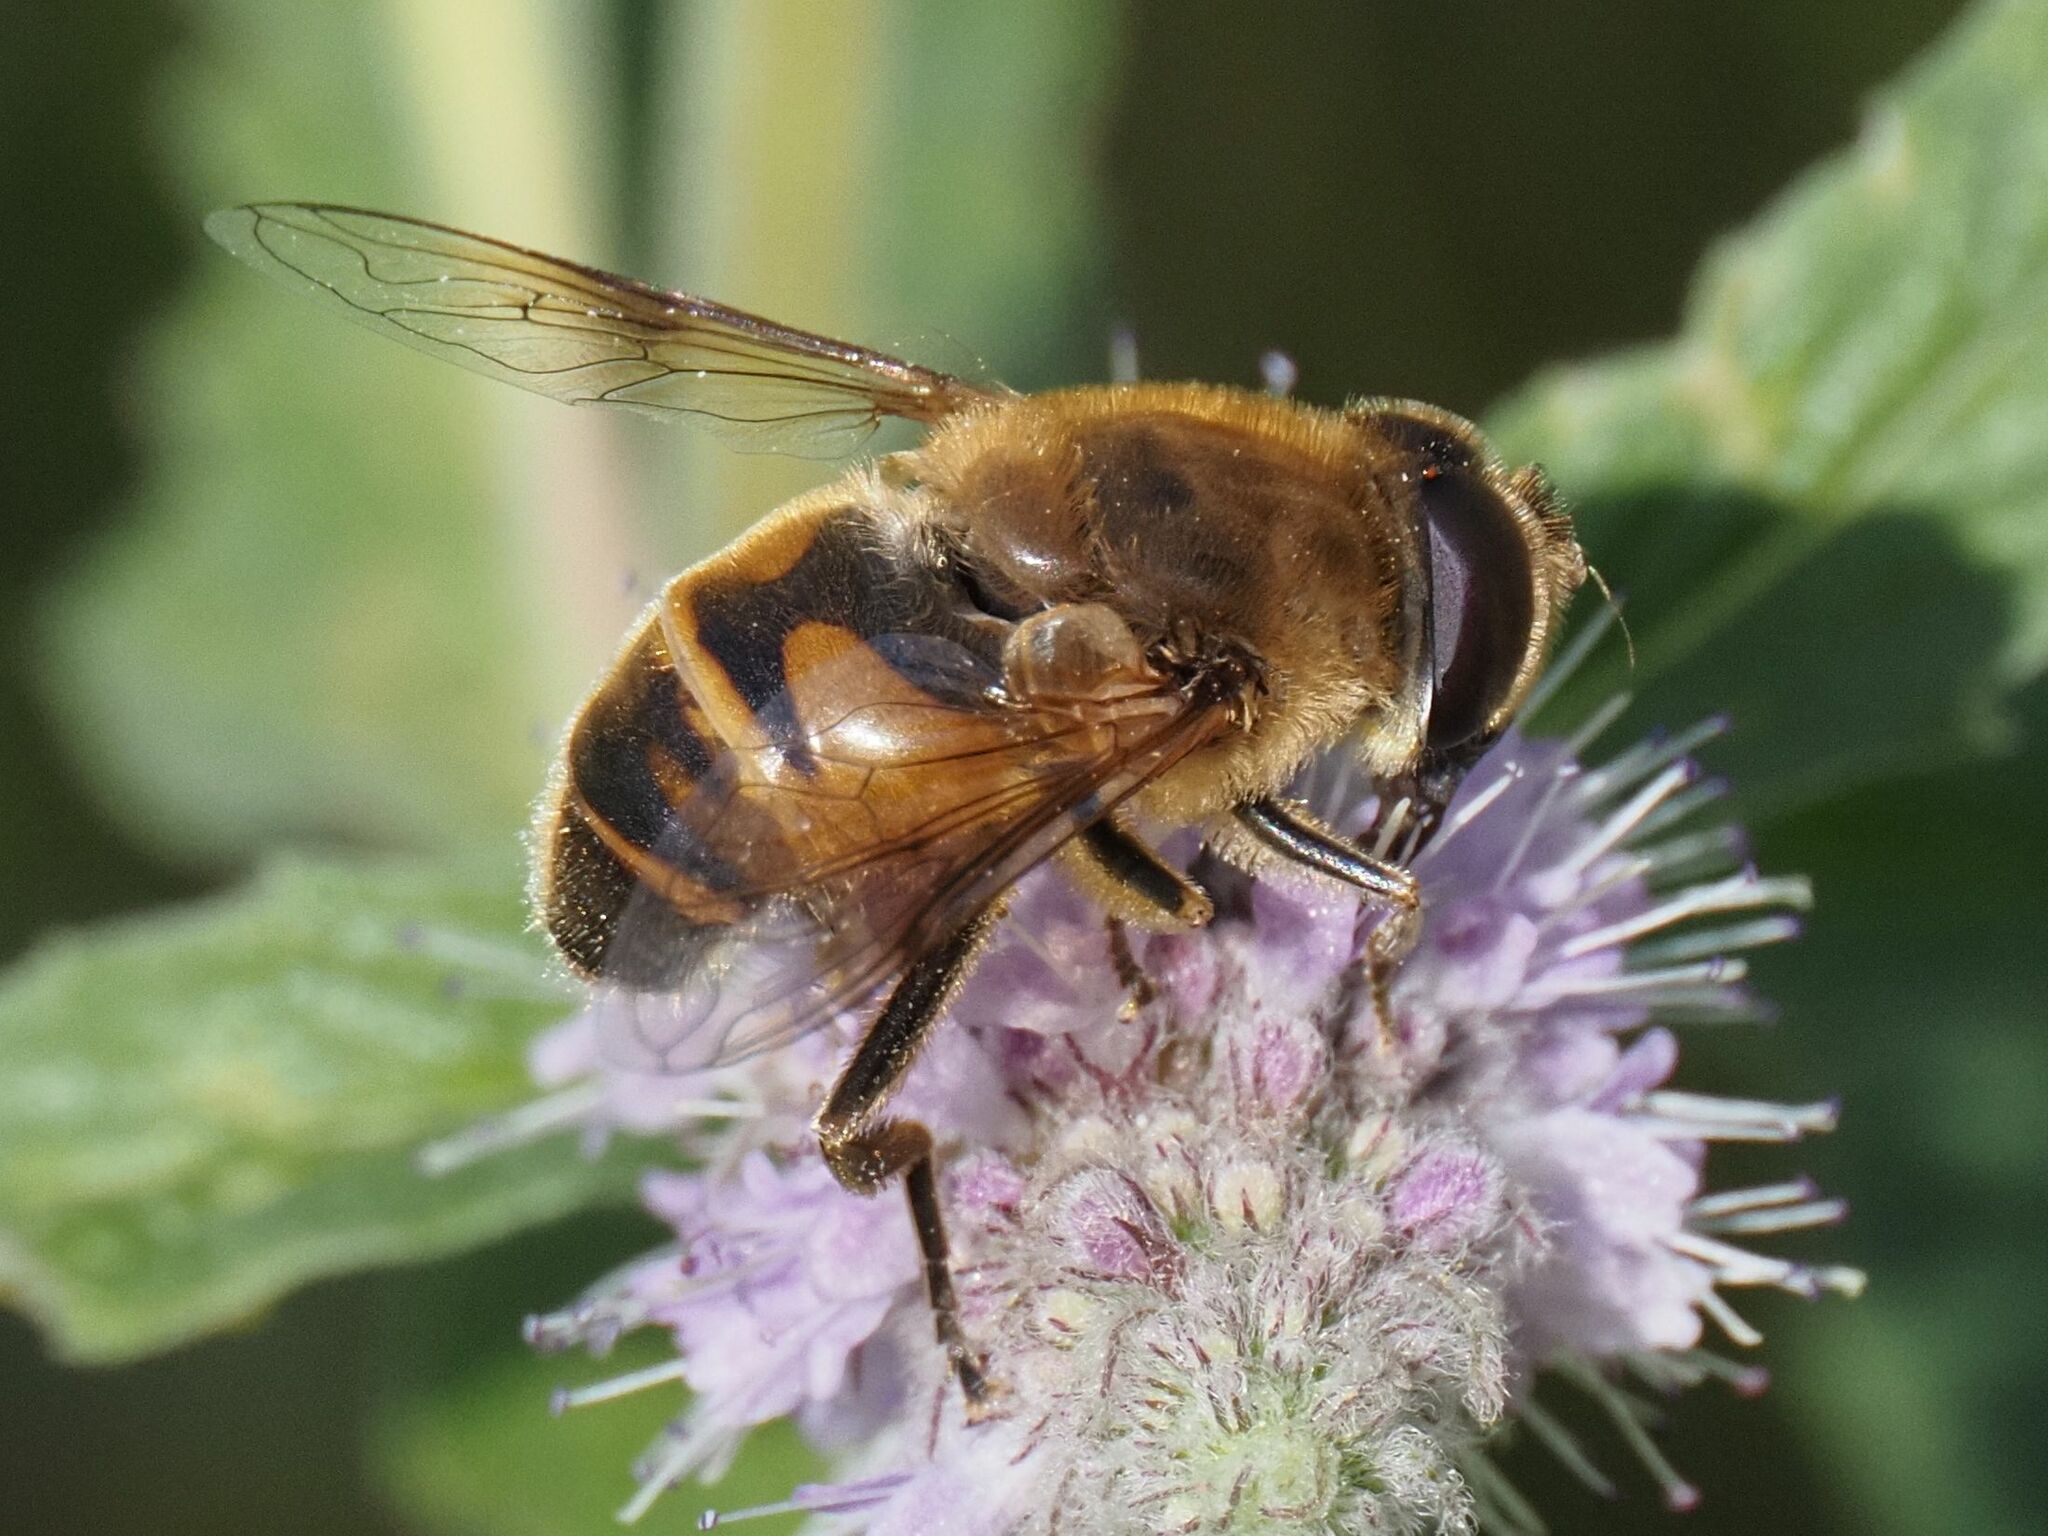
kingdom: Animalia
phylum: Arthropoda
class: Insecta
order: Diptera
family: Syrphidae
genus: Eristalis
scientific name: Eristalis tenax
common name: Drone fly
